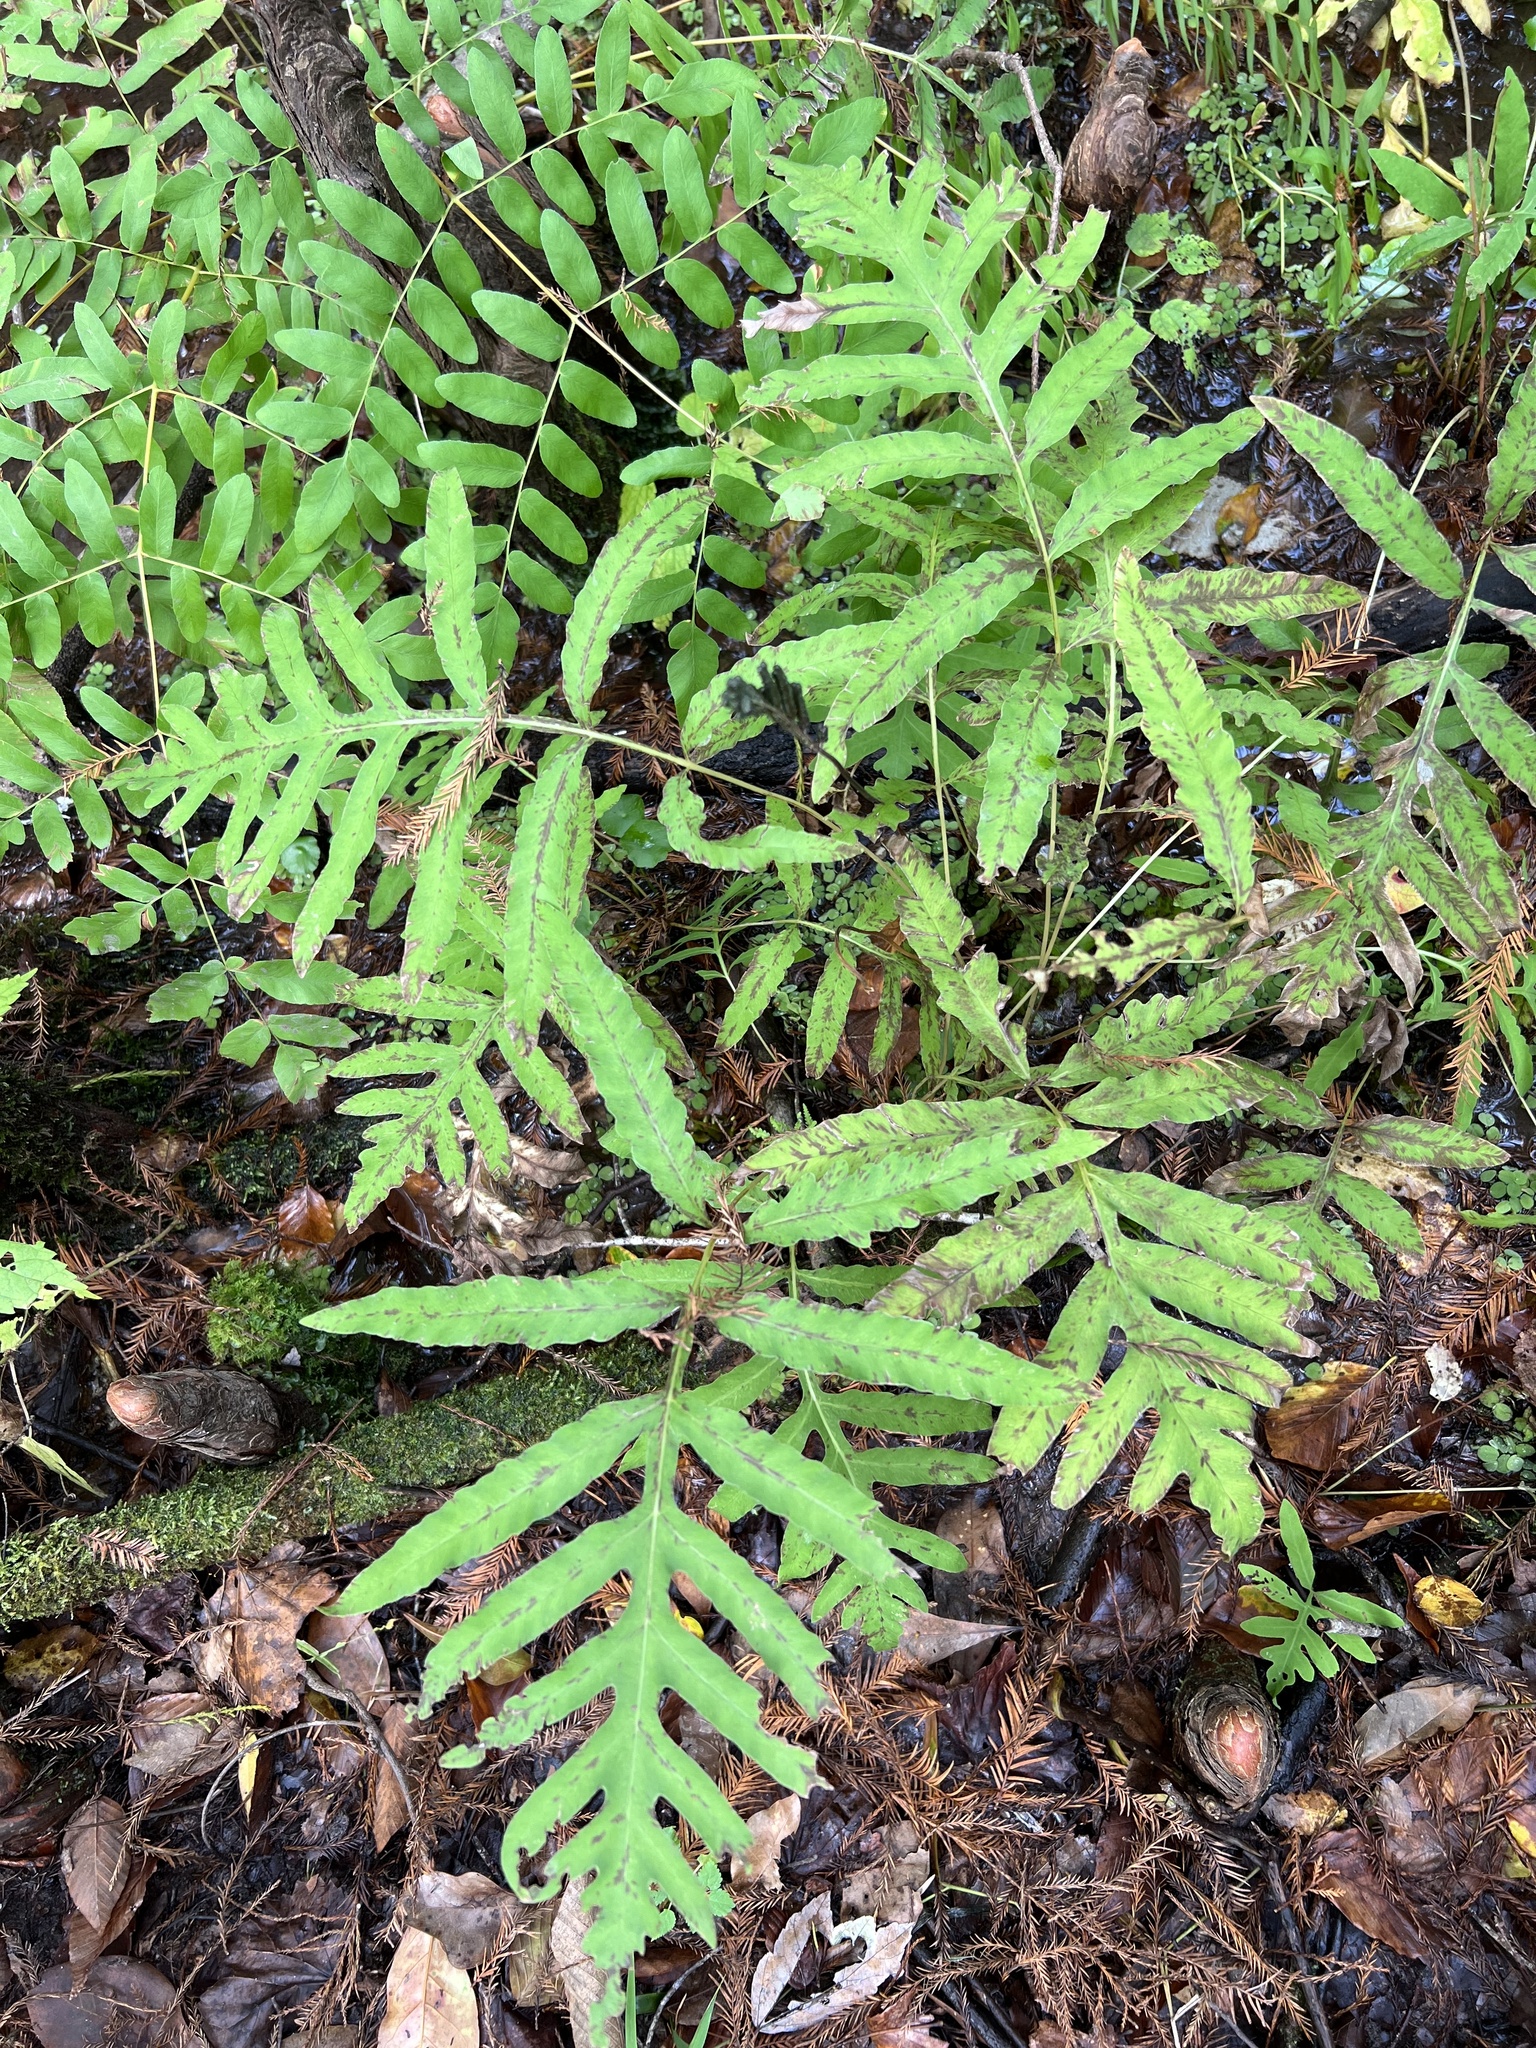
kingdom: Plantae
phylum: Tracheophyta
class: Polypodiopsida
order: Polypodiales
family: Onocleaceae
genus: Onoclea
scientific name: Onoclea sensibilis
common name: Sensitive fern
